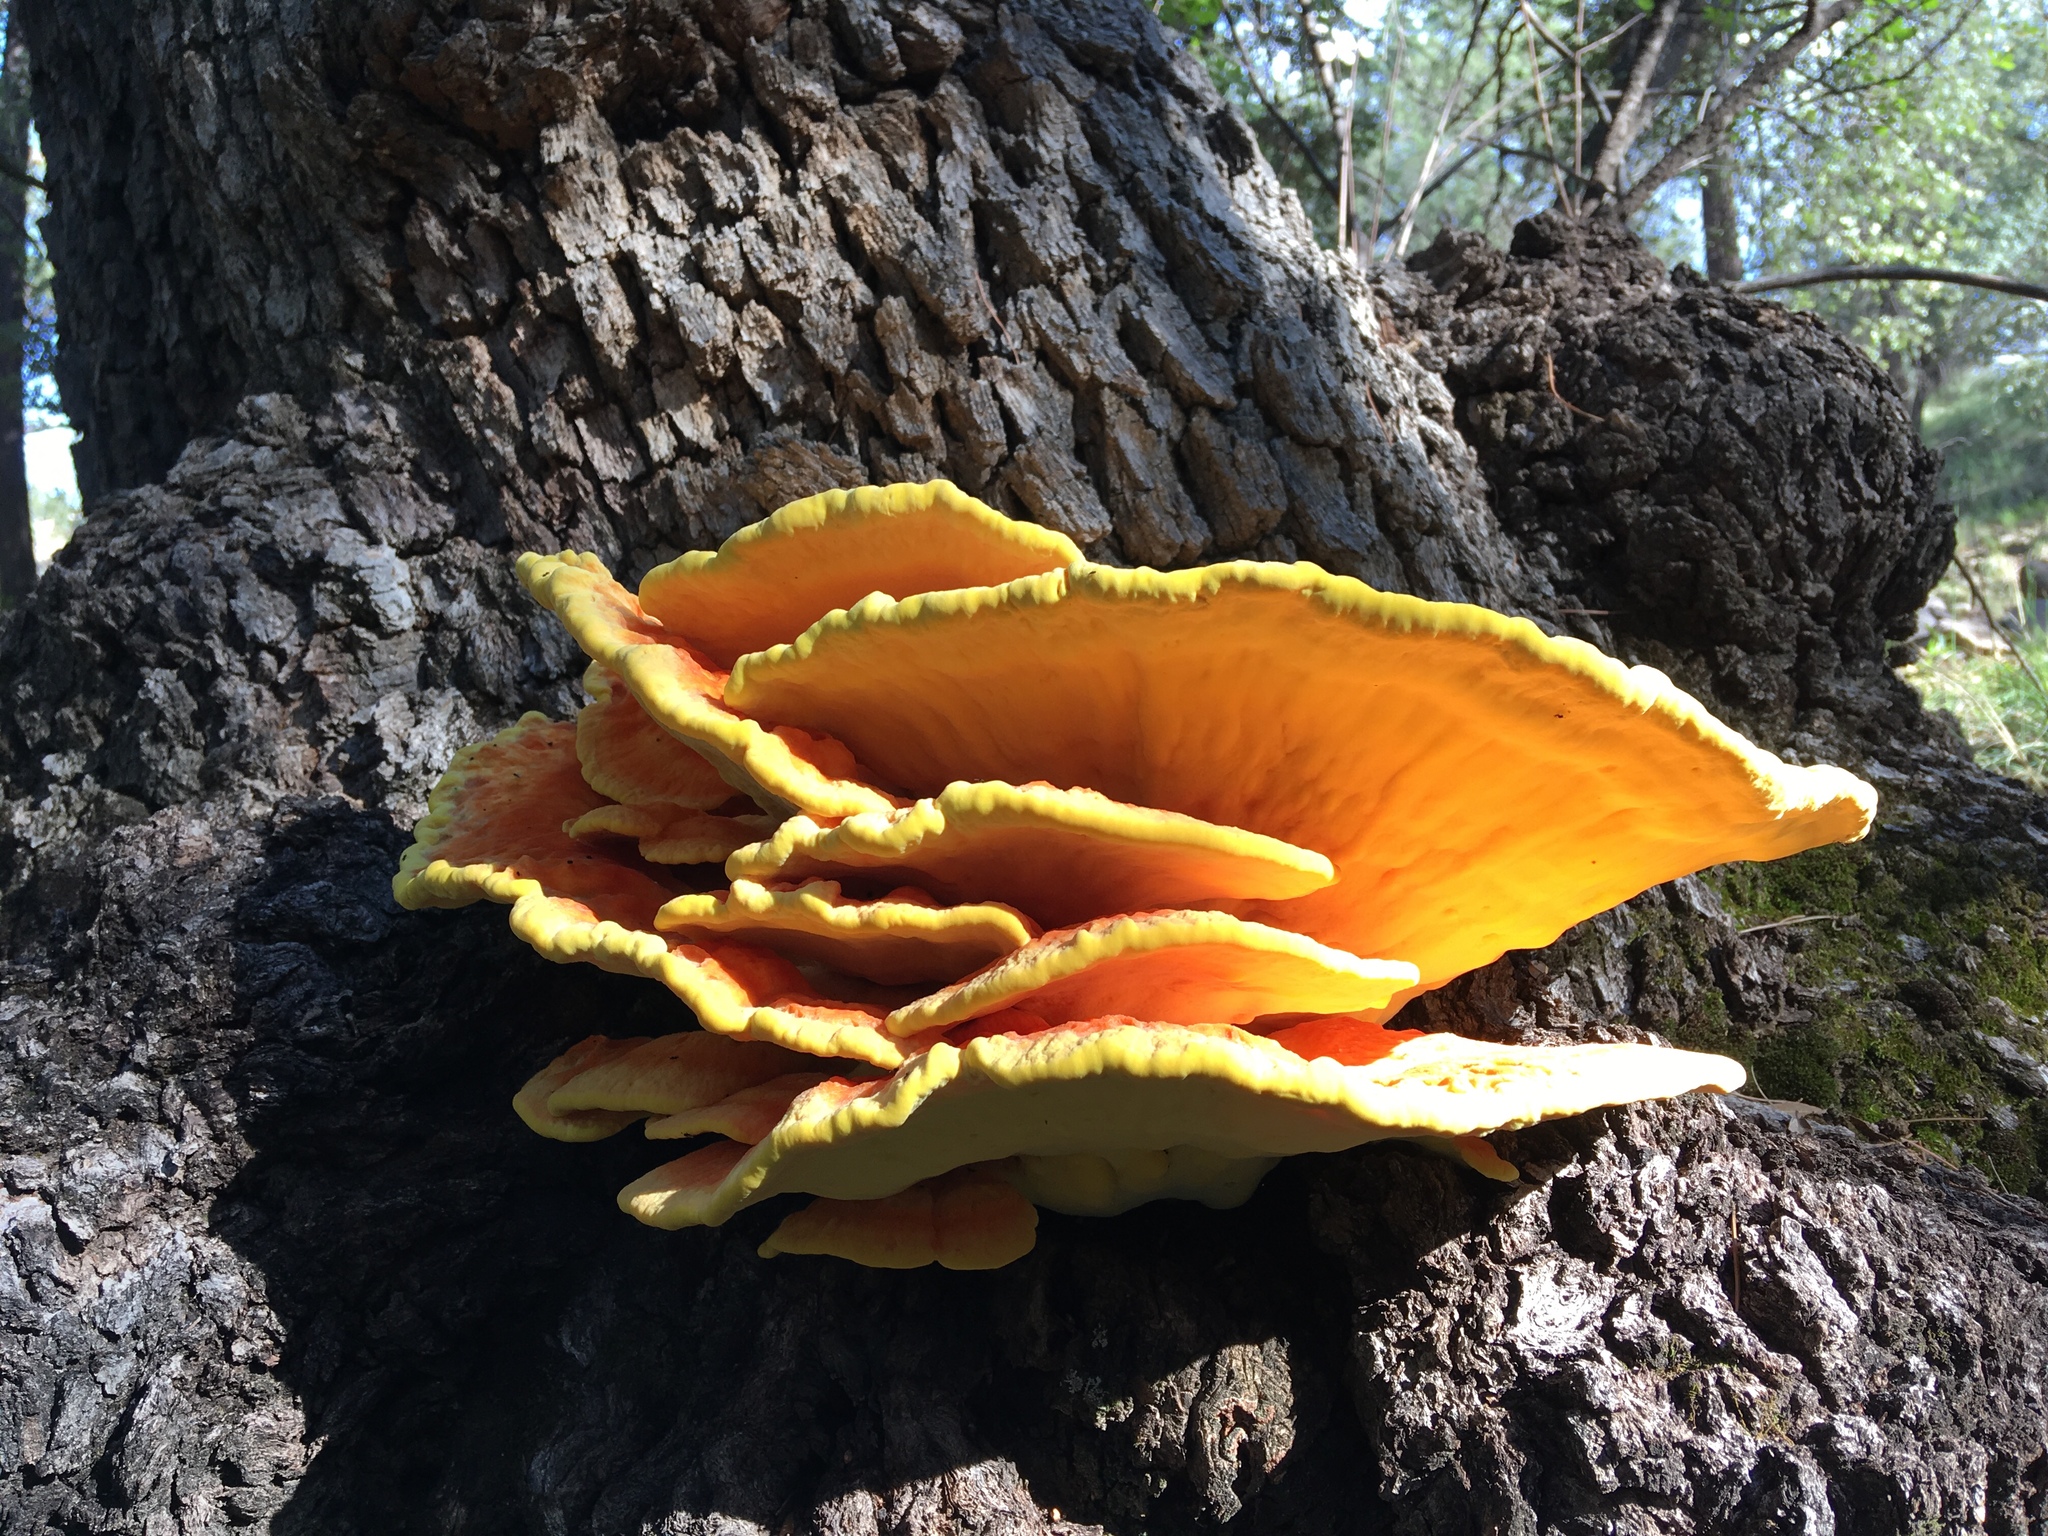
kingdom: Fungi
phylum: Basidiomycota
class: Agaricomycetes
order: Polyporales
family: Laetiporaceae
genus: Laetiporus
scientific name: Laetiporus gilbertsonii
